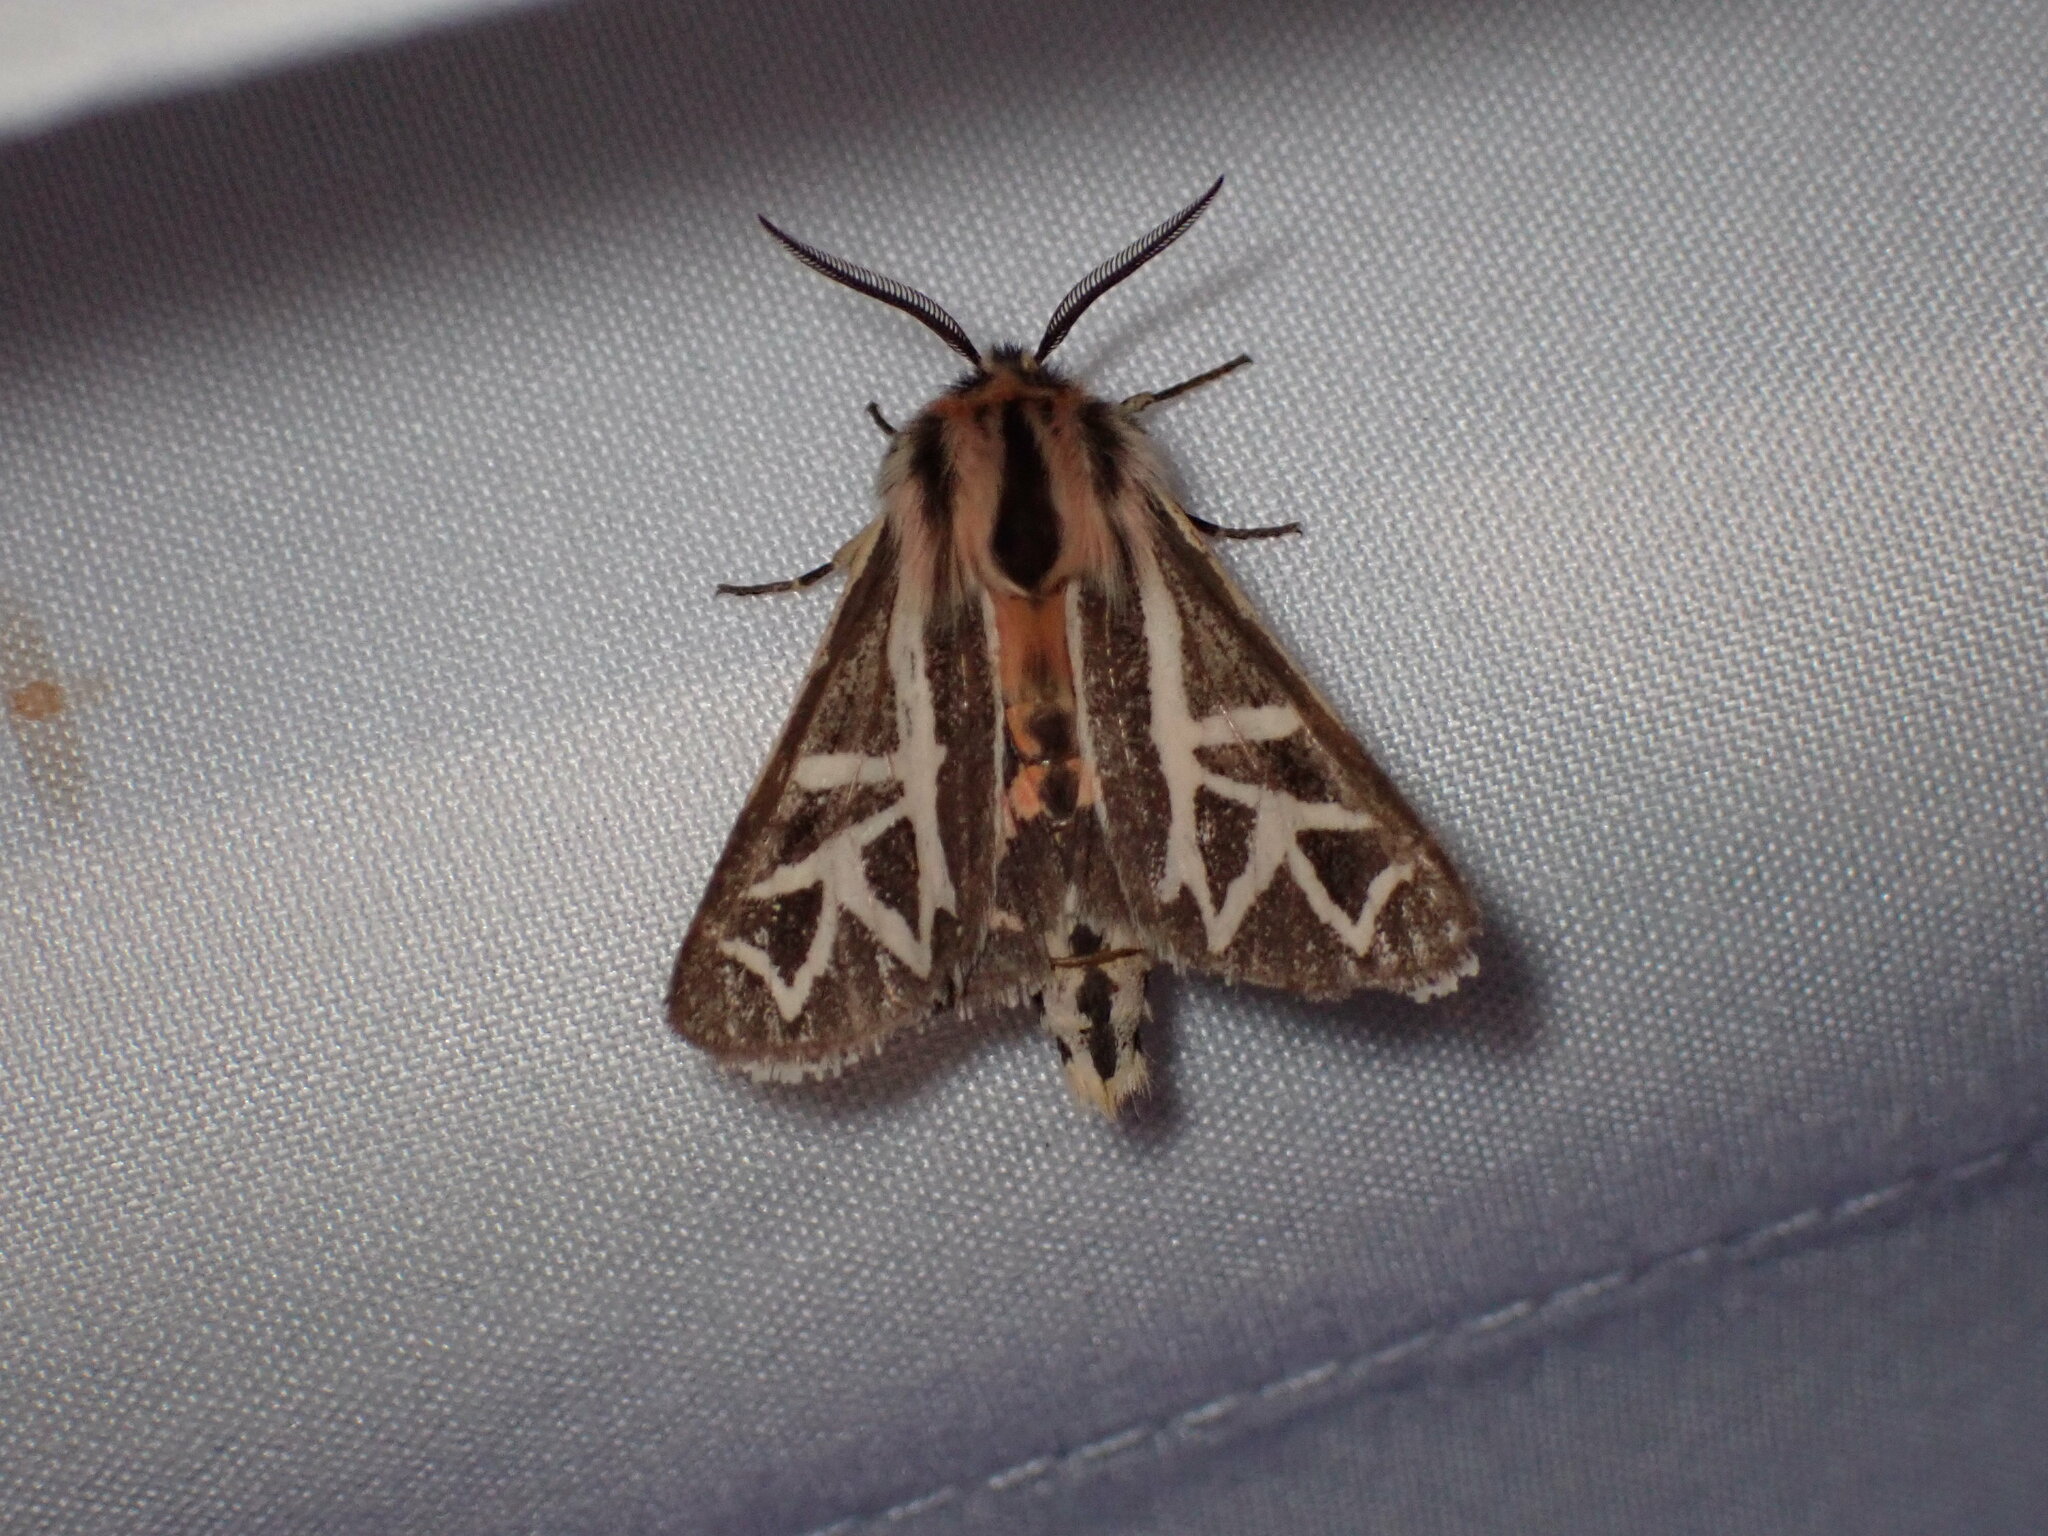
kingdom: Animalia
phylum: Arthropoda
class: Insecta
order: Lepidoptera
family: Erebidae
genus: Apantesis
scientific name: Apantesis
